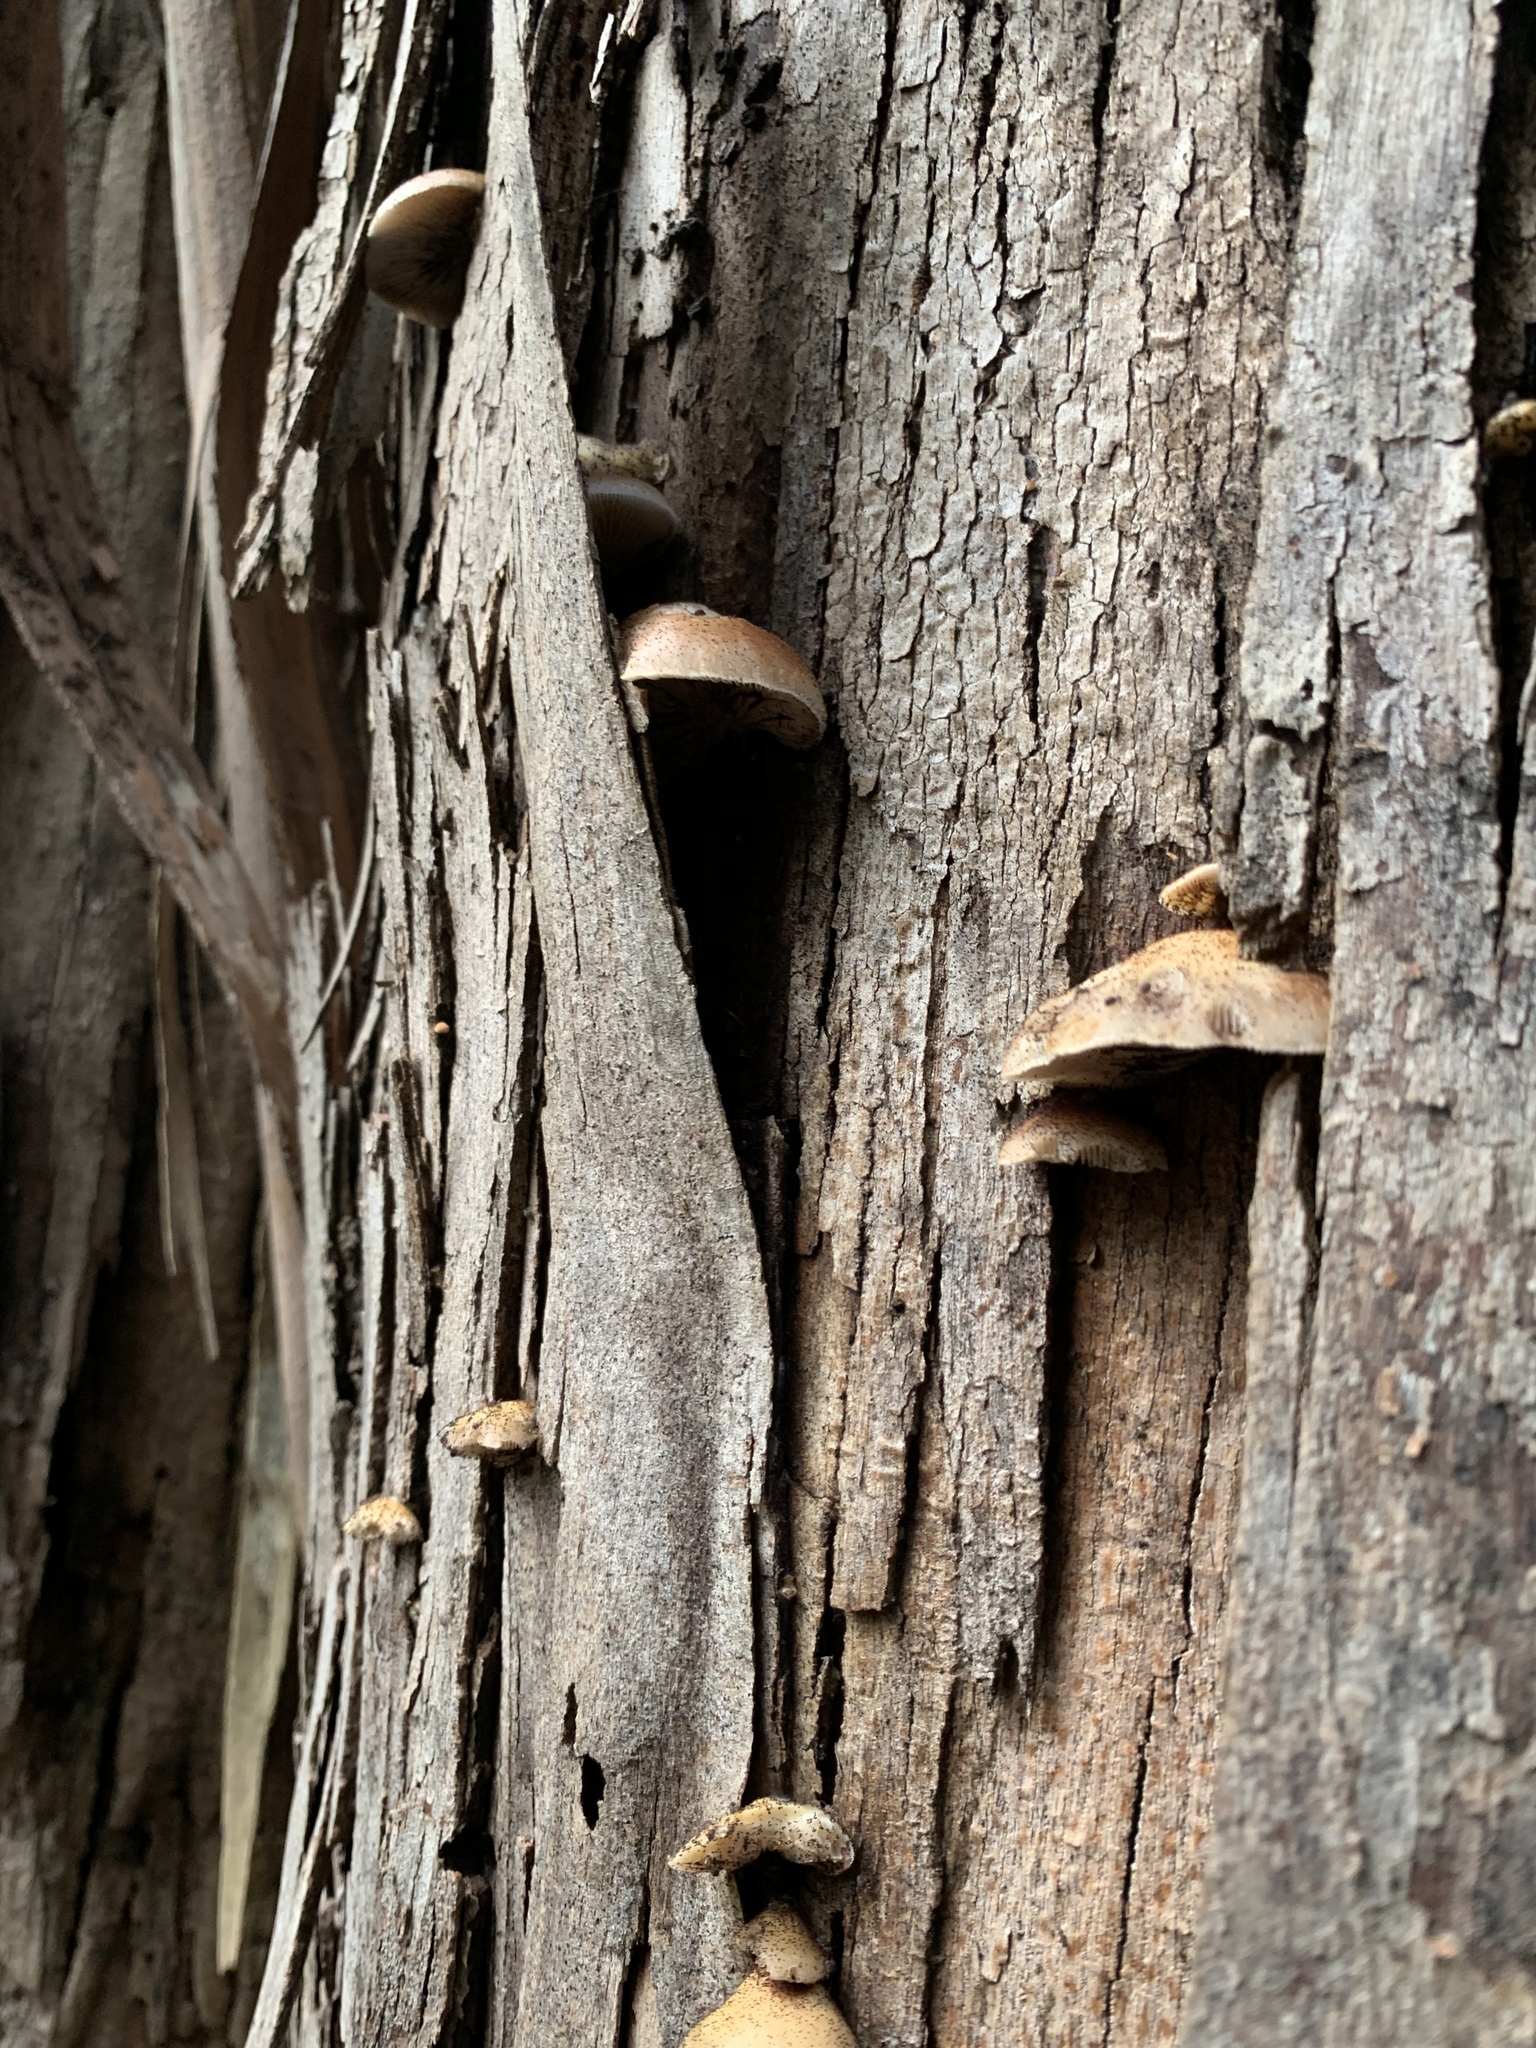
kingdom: Fungi
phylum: Basidiomycota
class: Agaricomycetes
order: Agaricales
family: Crepidotaceae
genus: Crepidotus
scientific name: Crepidotus mollis
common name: Peeling oysterling
